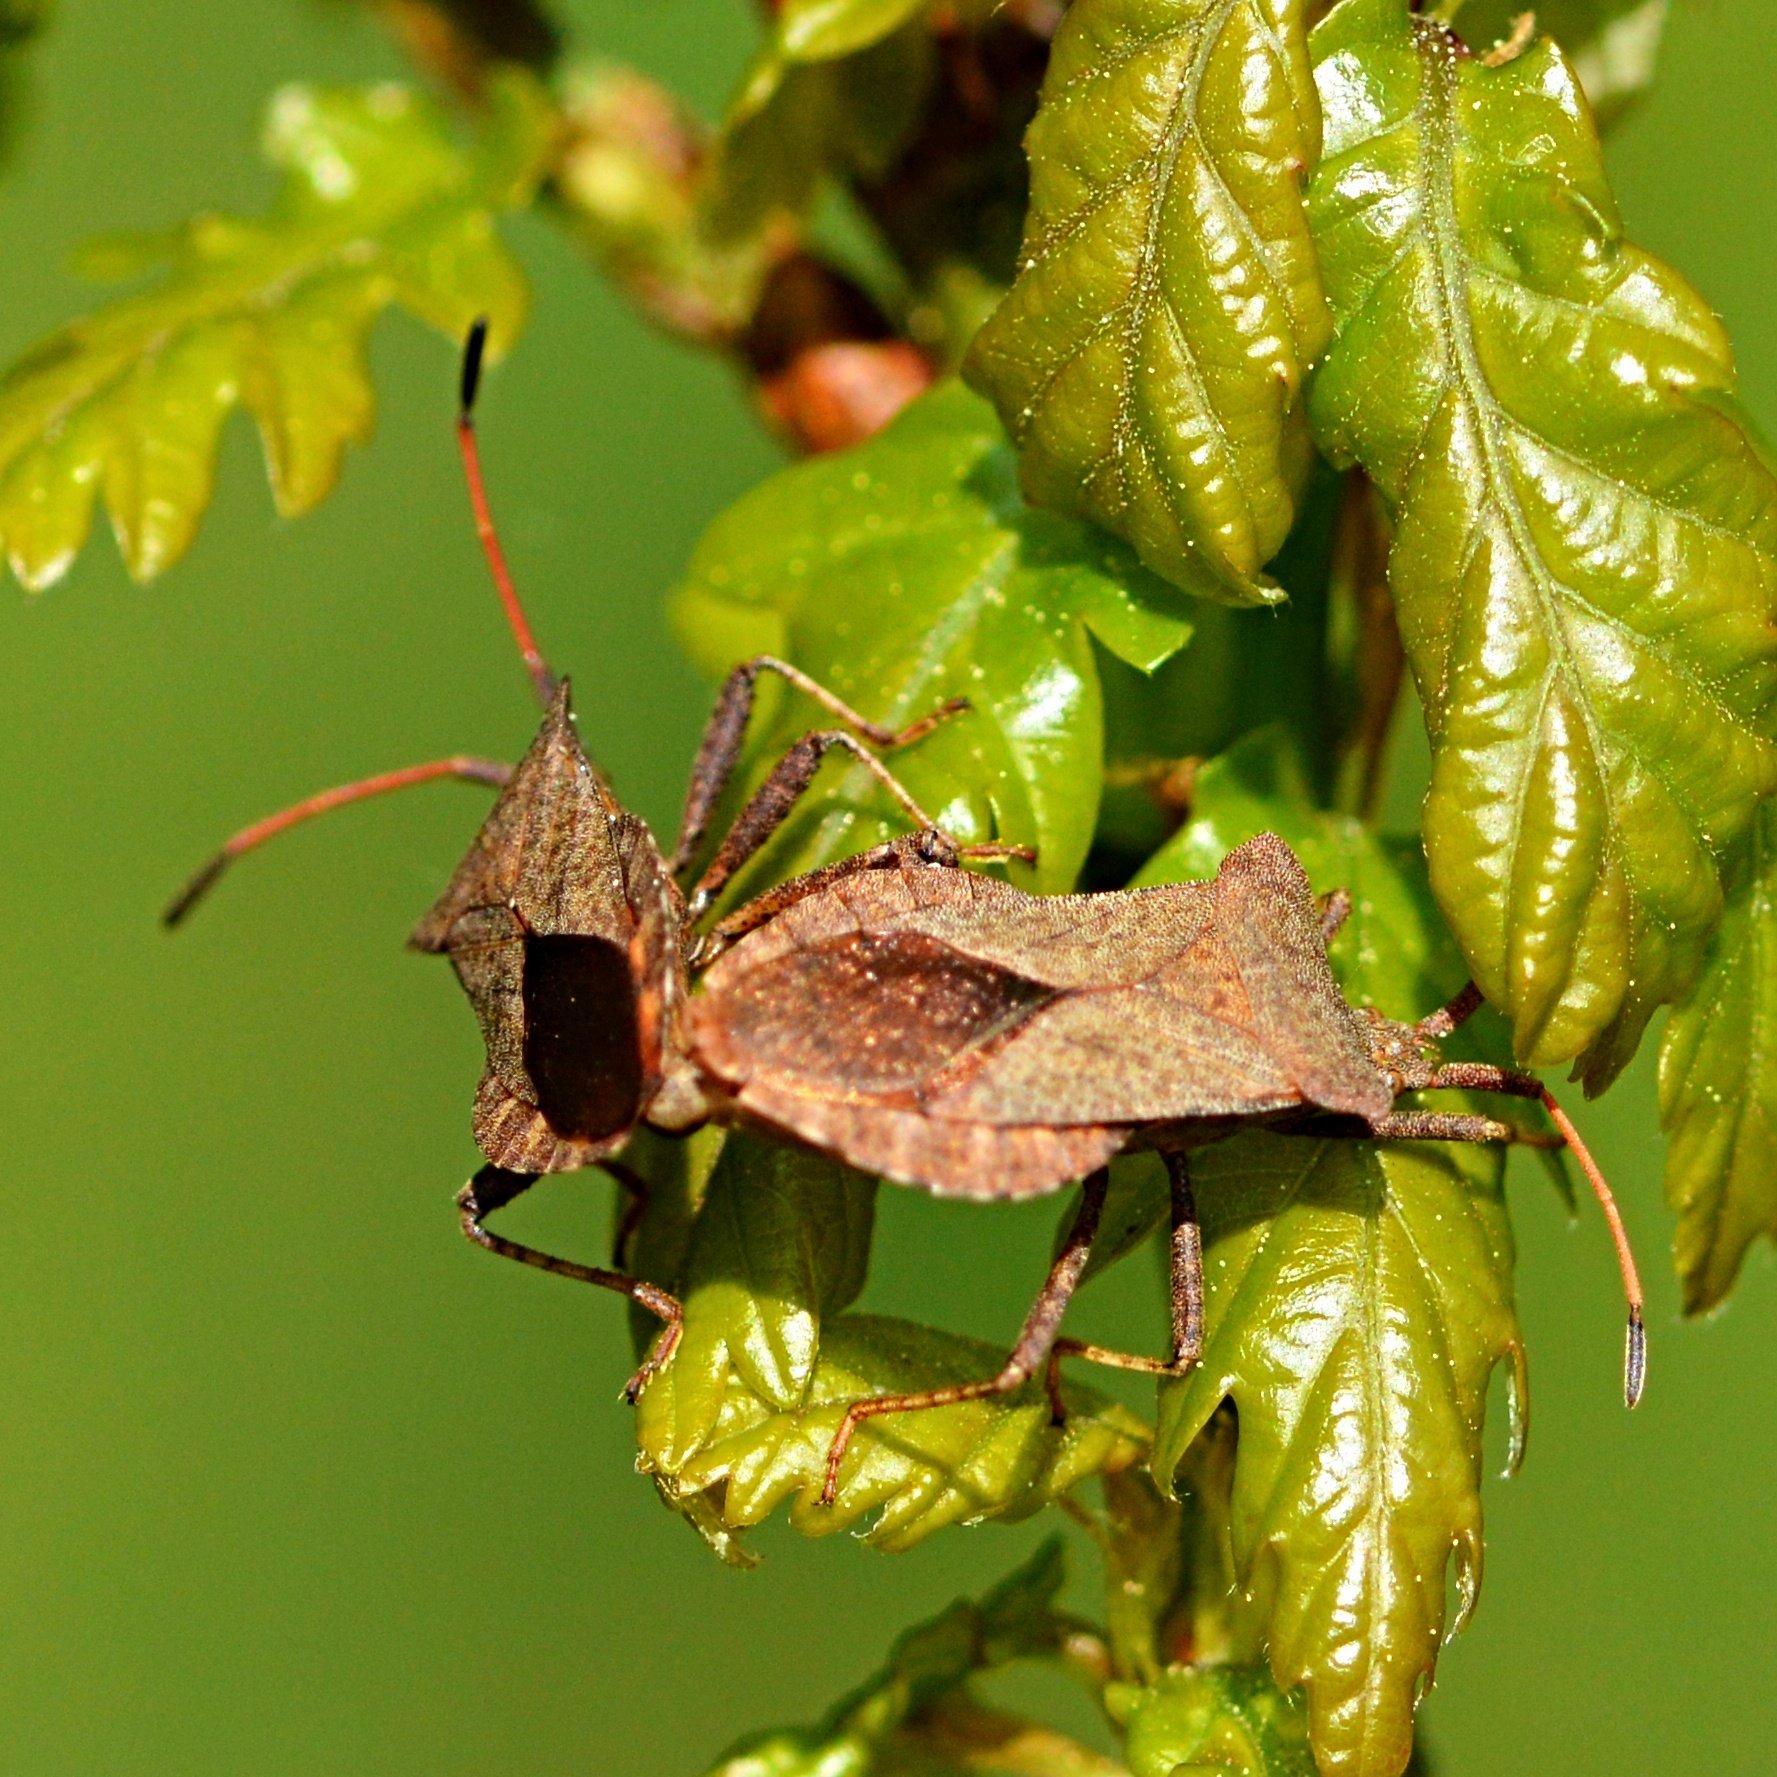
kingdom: Animalia
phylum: Arthropoda
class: Insecta
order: Hemiptera
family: Coreidae
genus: Coreus
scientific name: Coreus marginatus
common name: Dock bug
